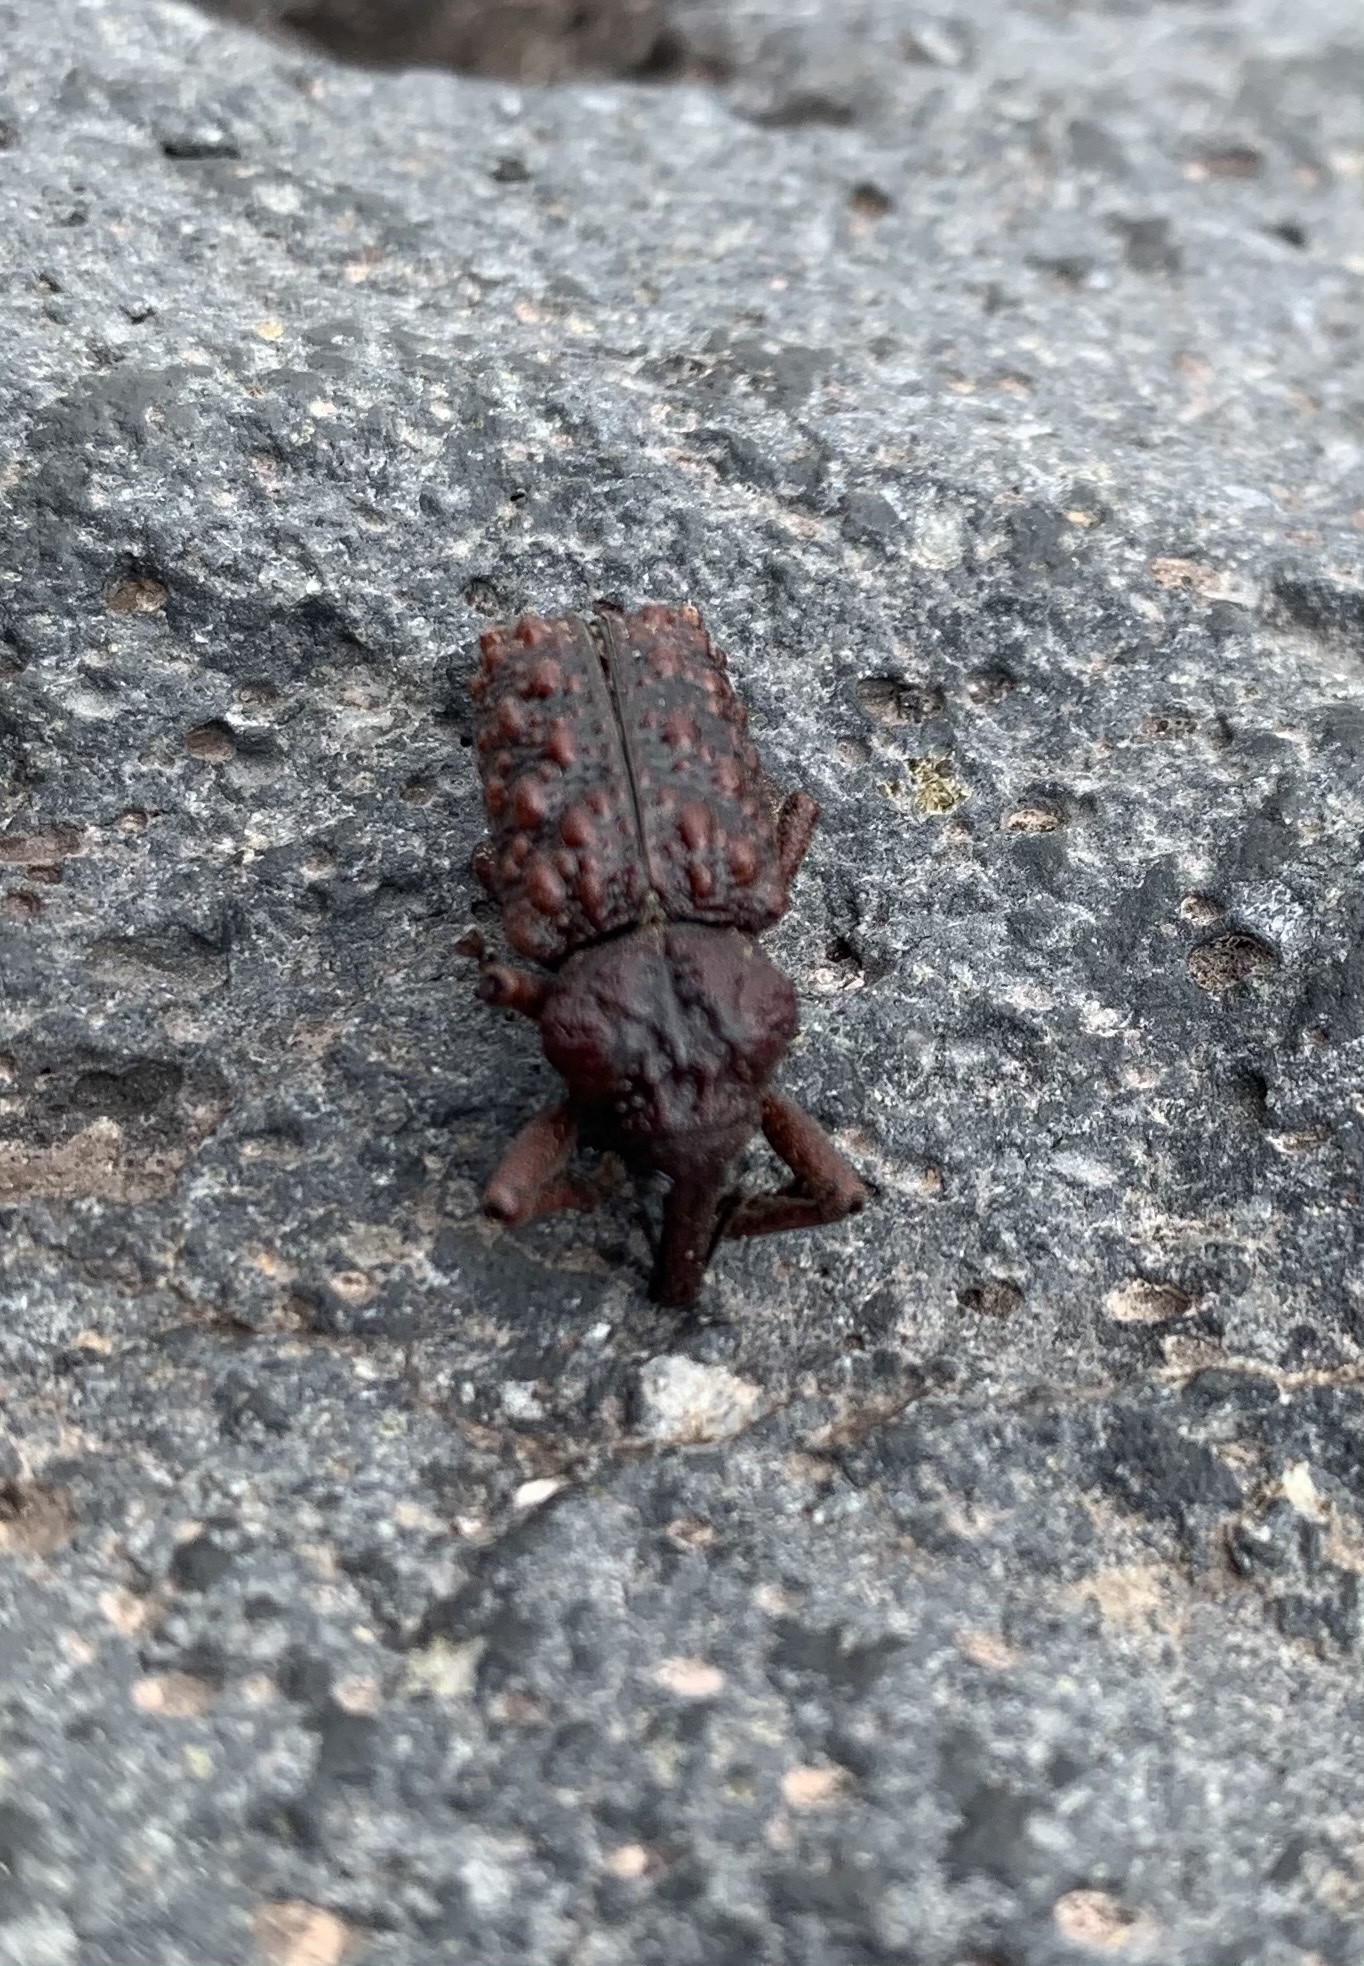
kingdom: Animalia
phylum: Arthropoda
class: Insecta
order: Coleoptera
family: Curculionidae
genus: Calvertius
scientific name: Calvertius tuberosus
